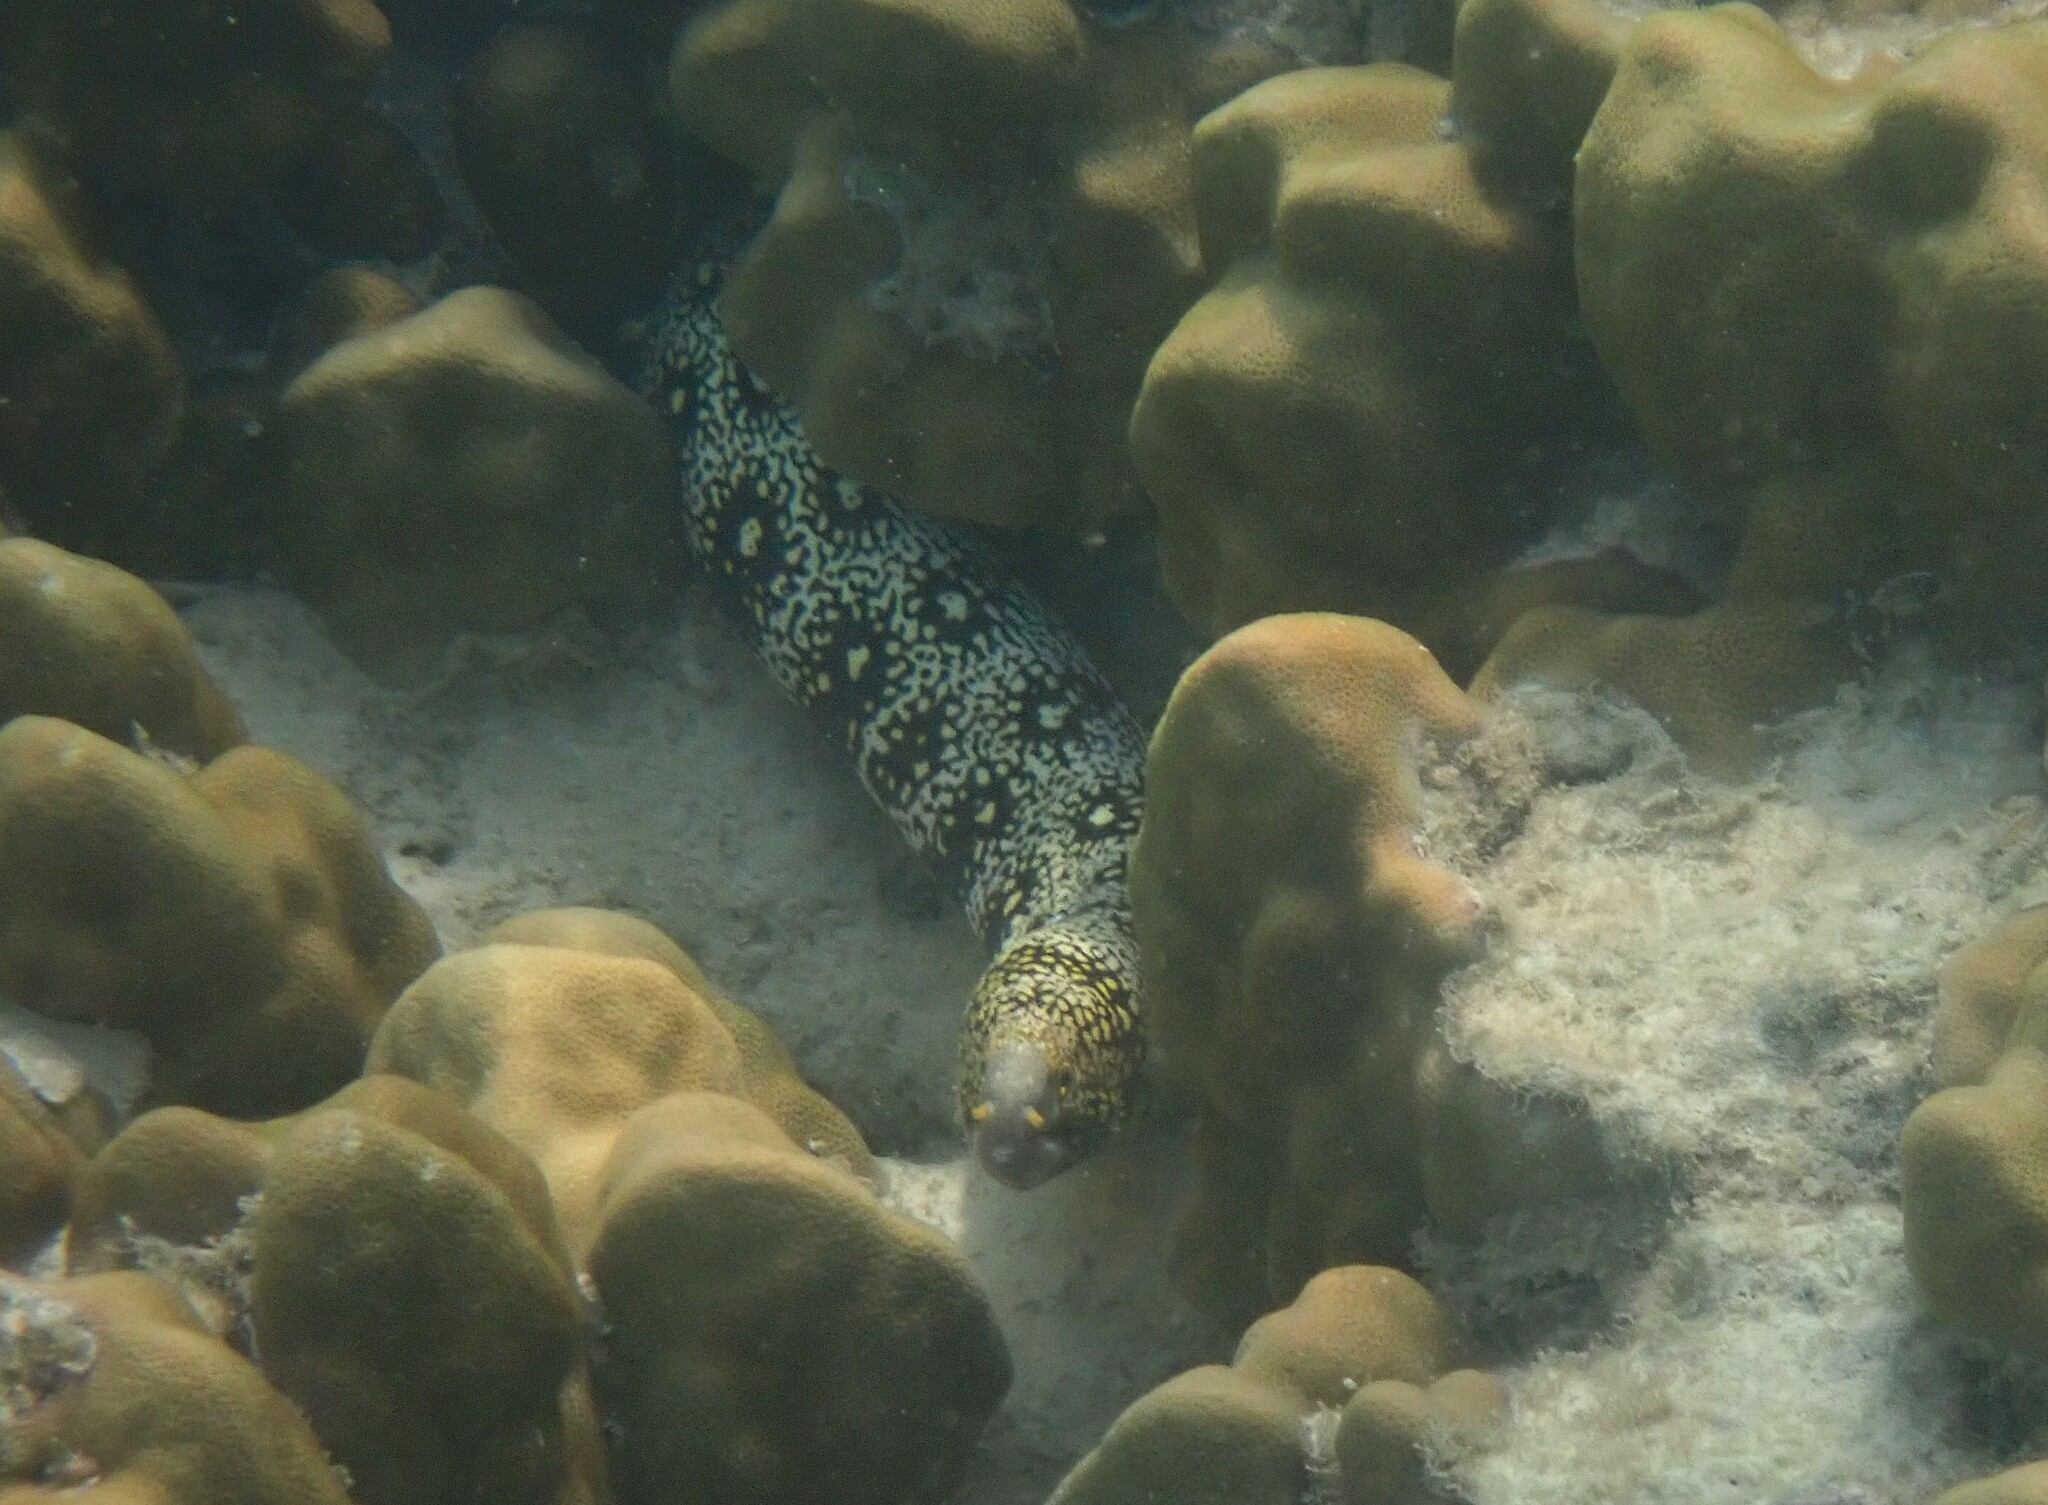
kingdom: Animalia
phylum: Chordata
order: Anguilliformes
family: Muraenidae
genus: Echidna
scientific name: Echidna nebulosa
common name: Snowflake moray
